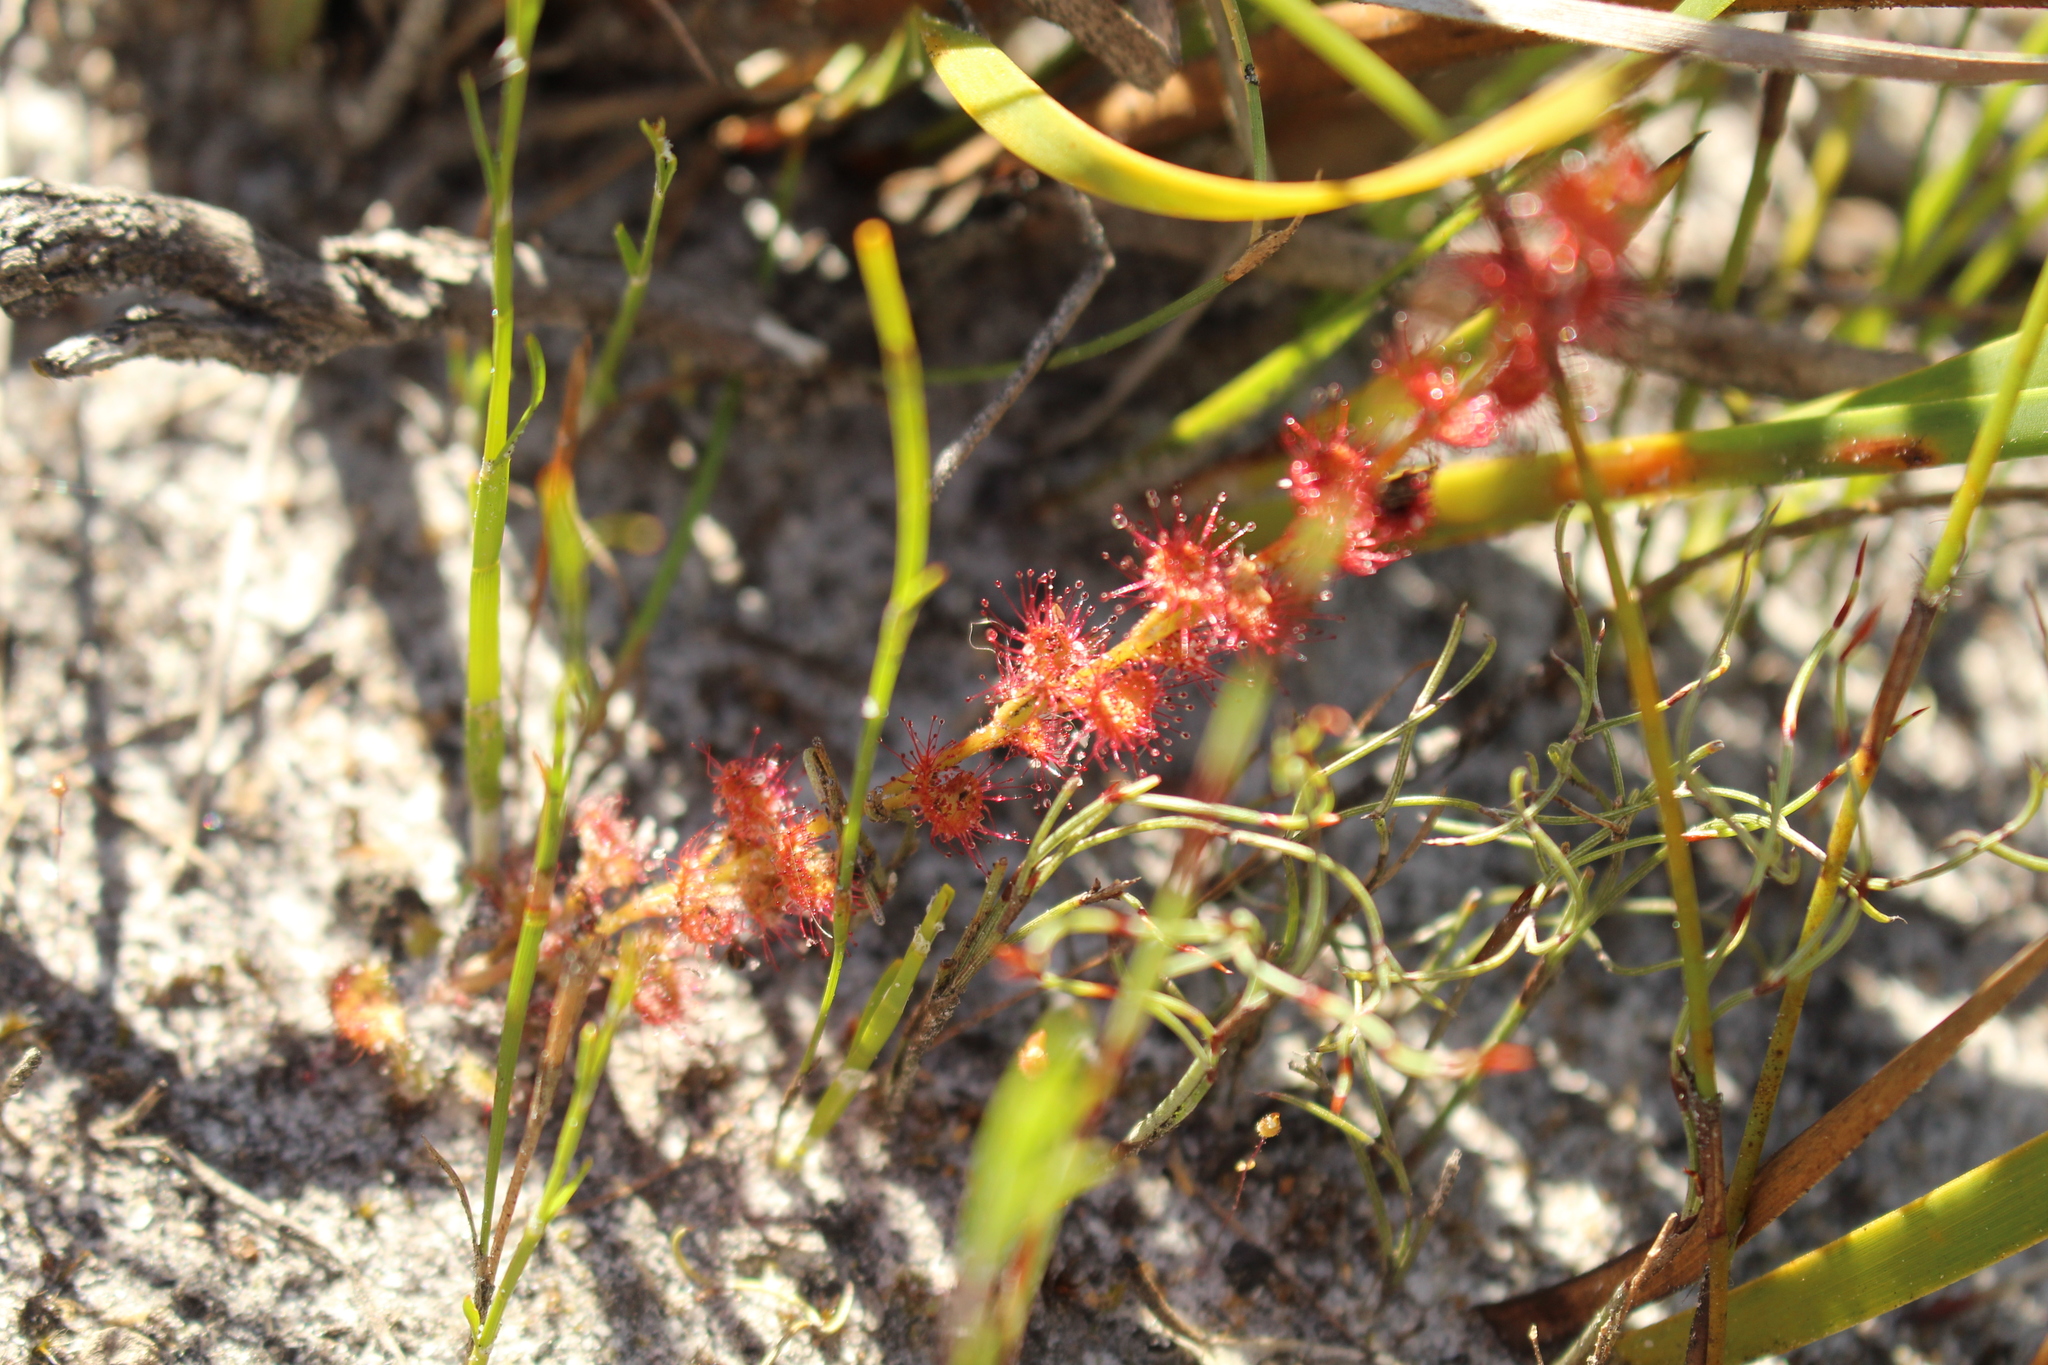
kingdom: Plantae
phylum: Tracheophyta
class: Magnoliopsida
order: Caryophyllales
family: Droseraceae
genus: Drosera
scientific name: Drosera platypoda
